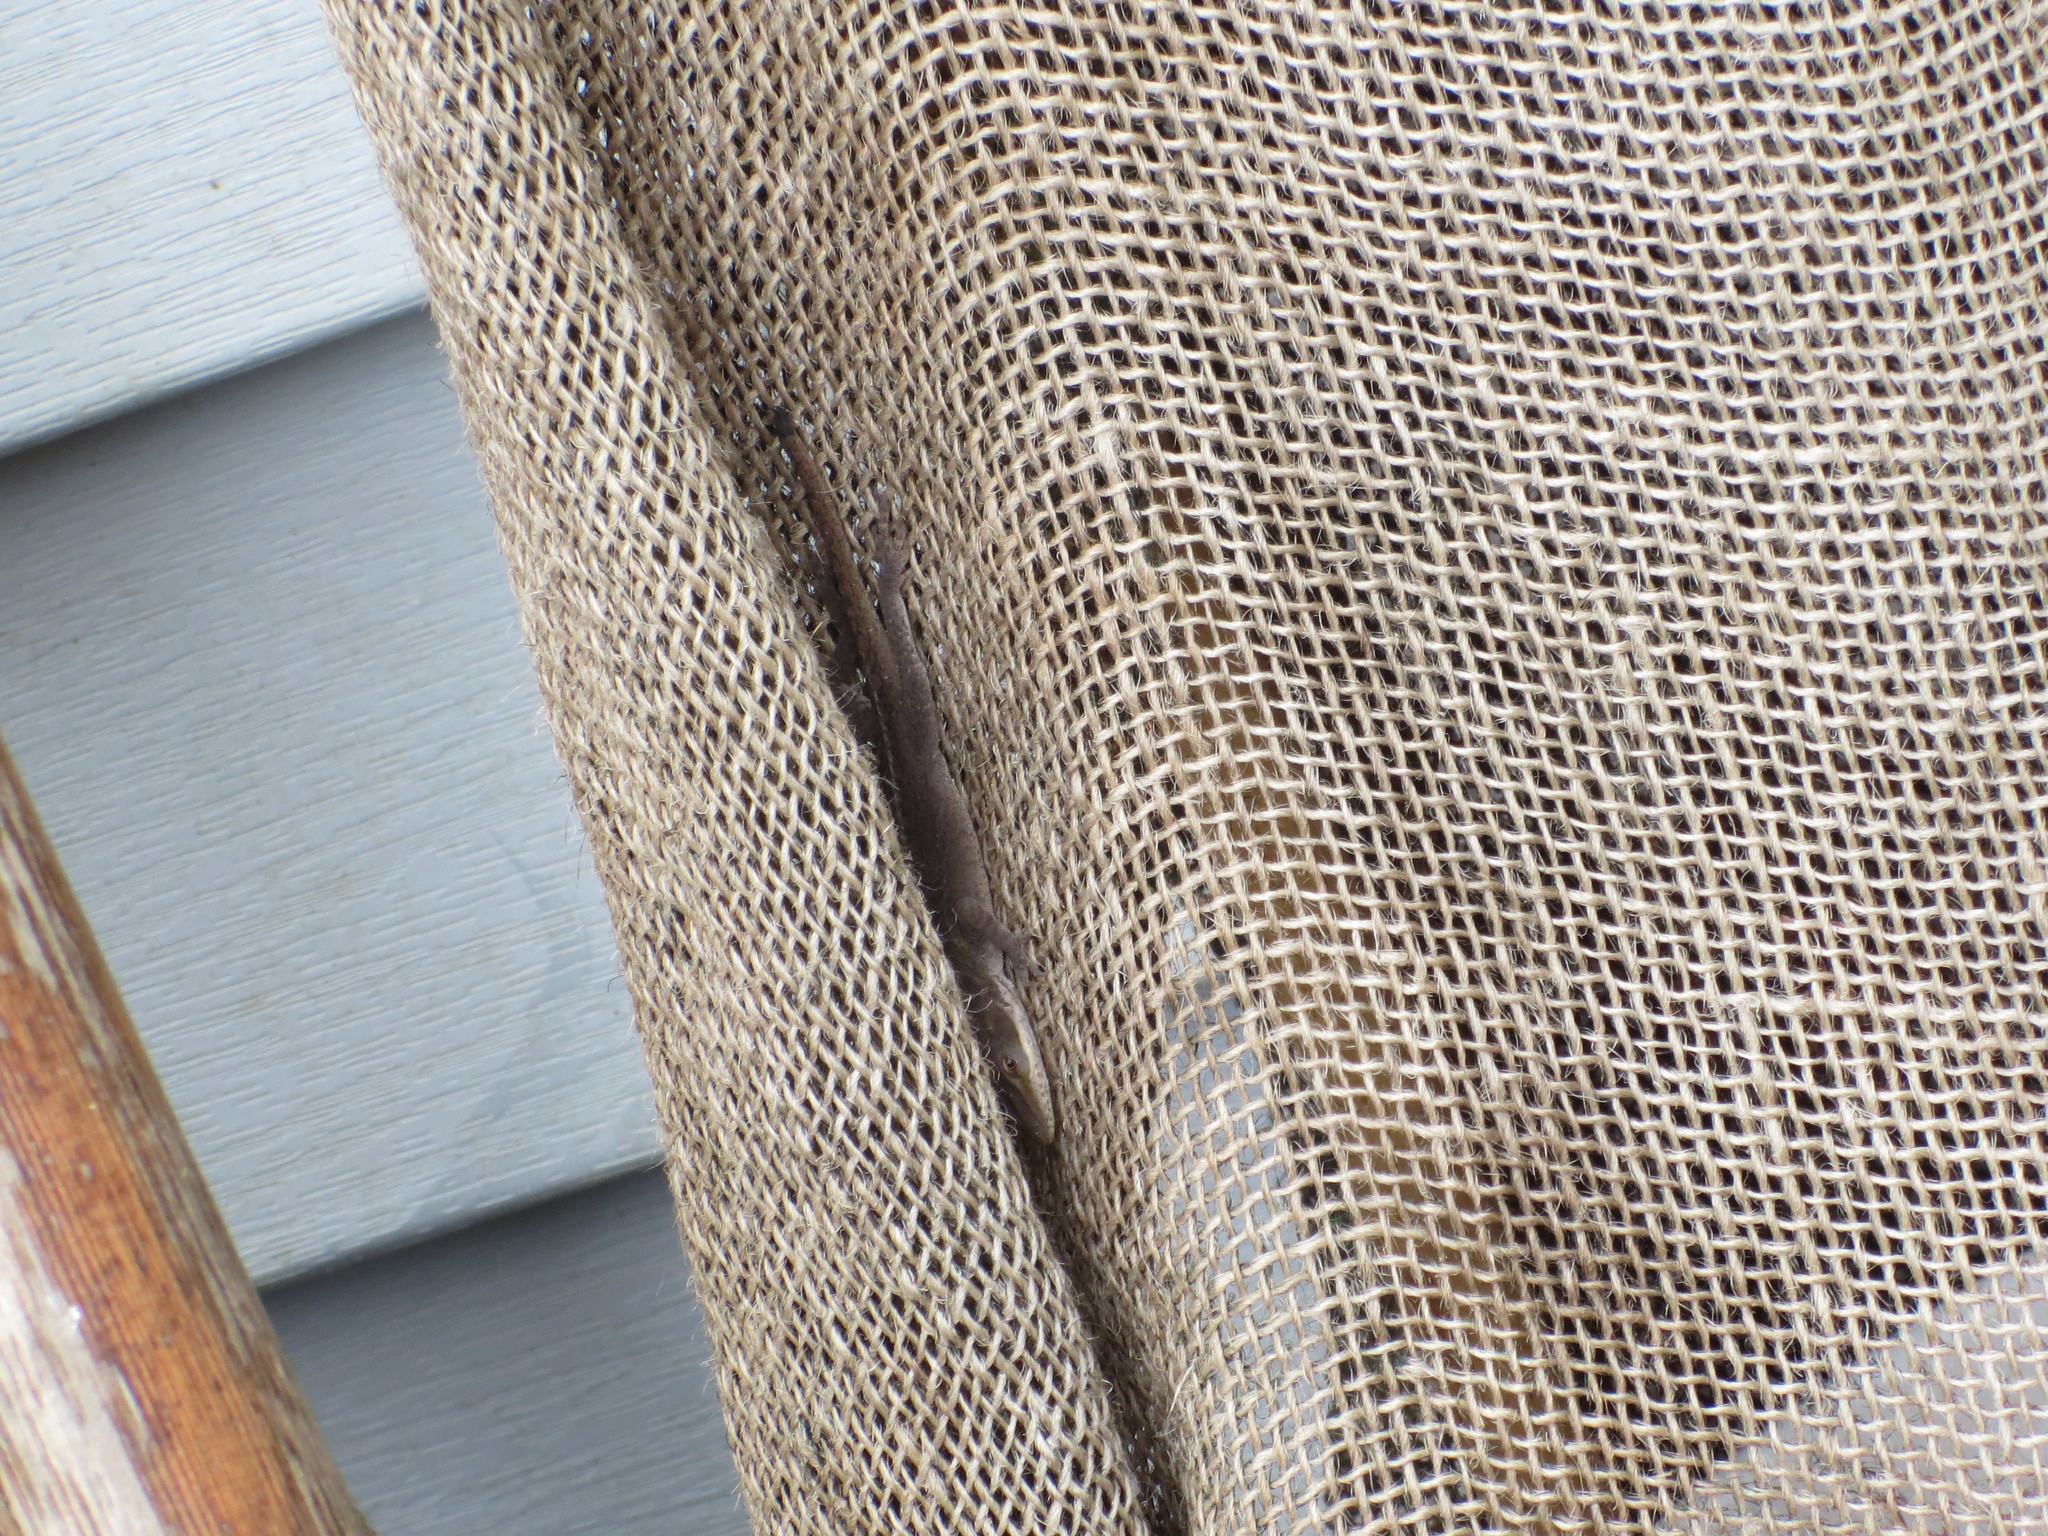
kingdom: Animalia
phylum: Chordata
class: Squamata
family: Dactyloidae
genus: Anolis
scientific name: Anolis carolinensis
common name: Green anole
